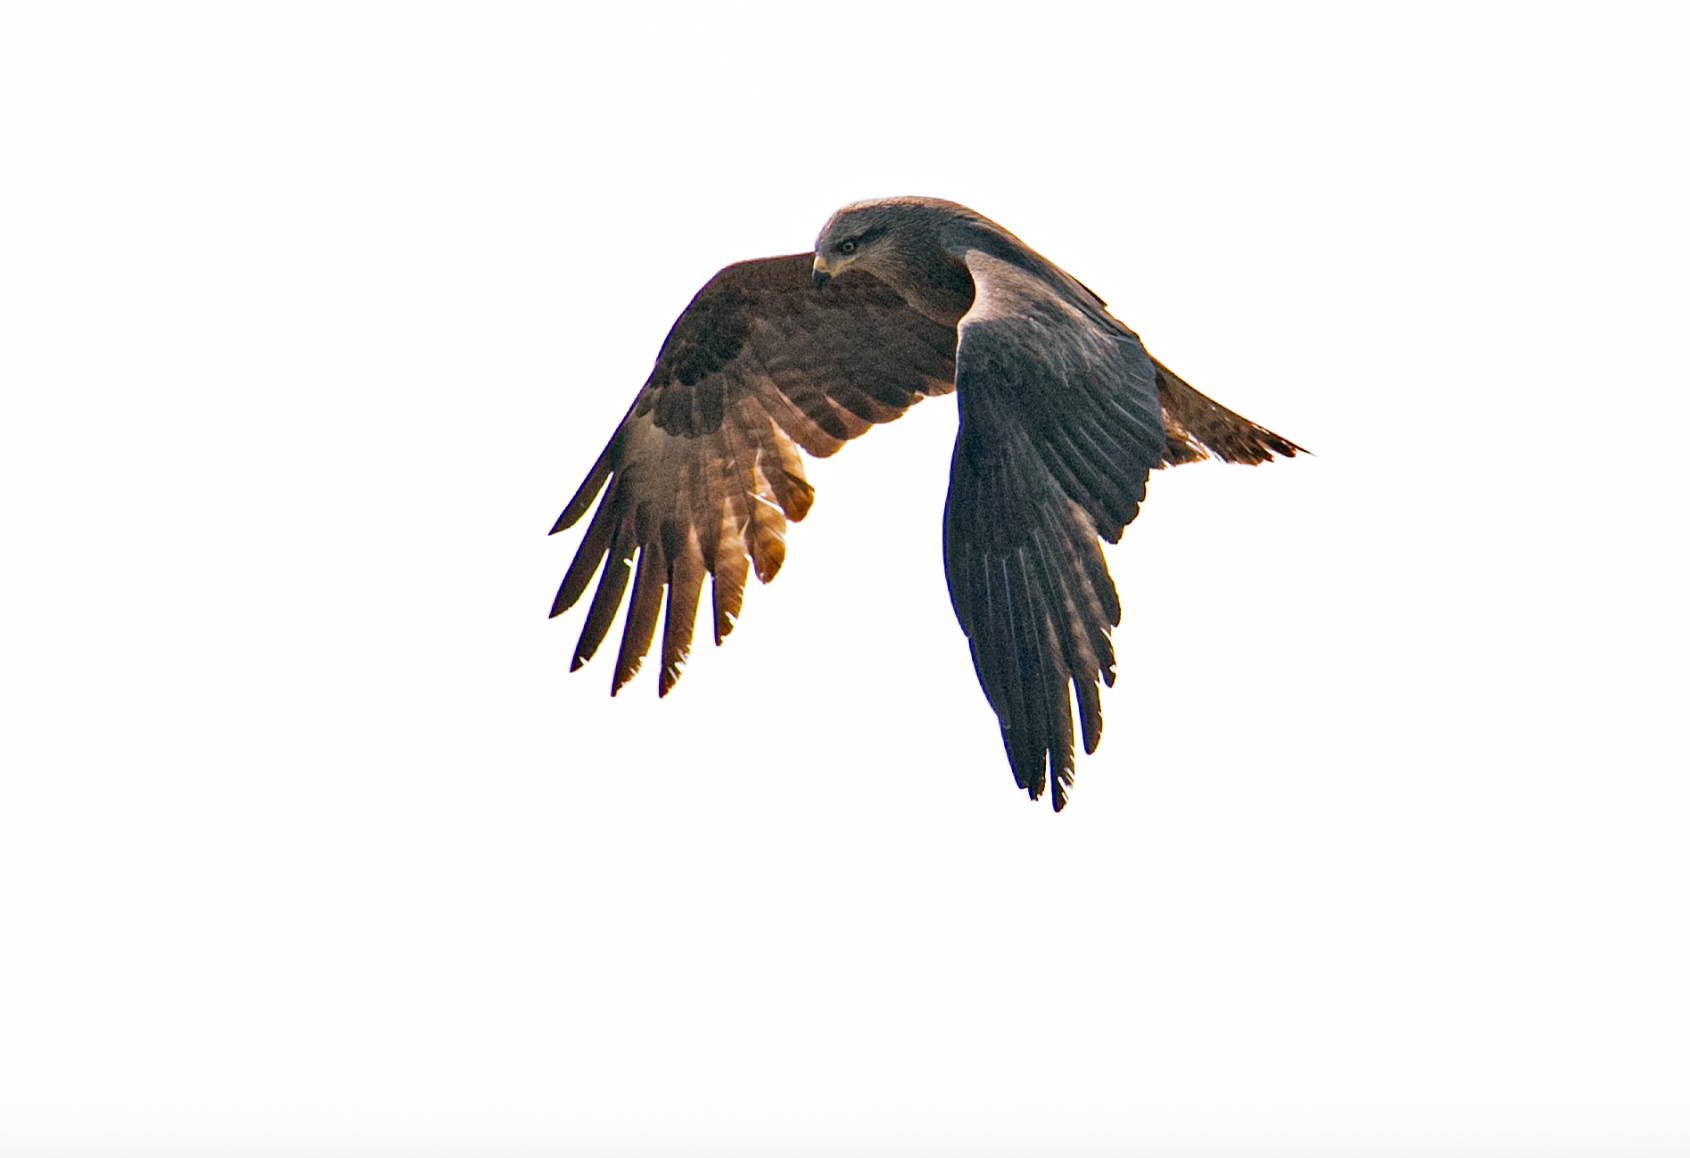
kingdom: Animalia
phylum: Chordata
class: Aves
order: Accipitriformes
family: Accipitridae
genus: Milvus
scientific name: Milvus migrans
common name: Black kite
